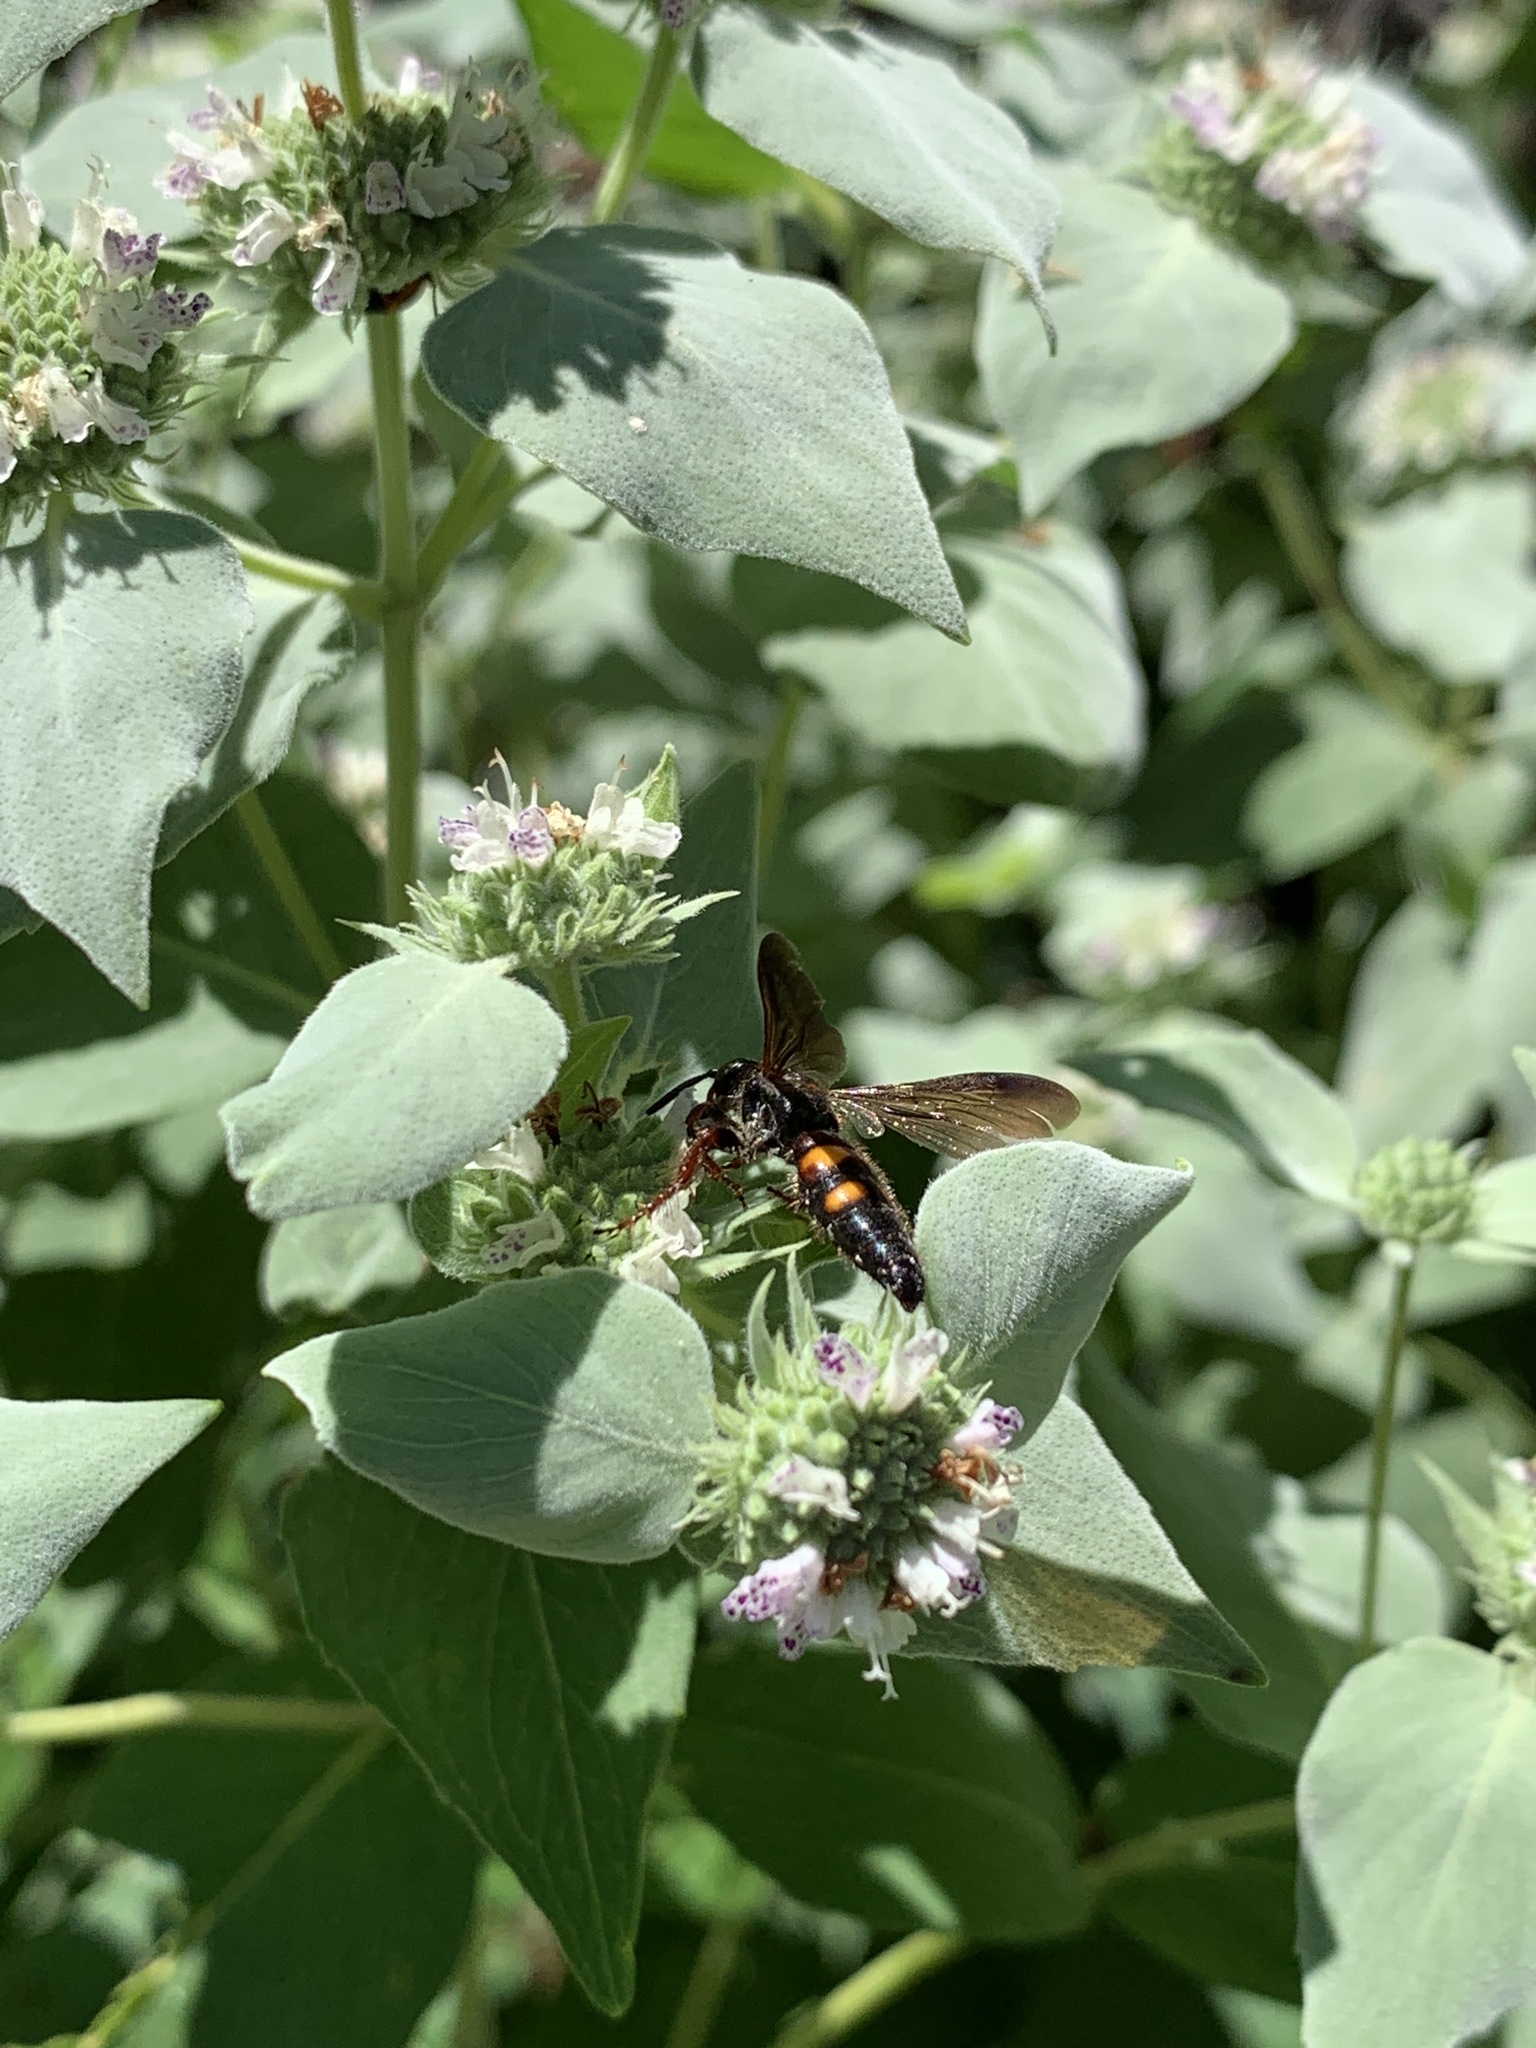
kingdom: Animalia
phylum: Arthropoda
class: Insecta
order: Hymenoptera
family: Scoliidae
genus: Scolia
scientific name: Scolia nobilitata
